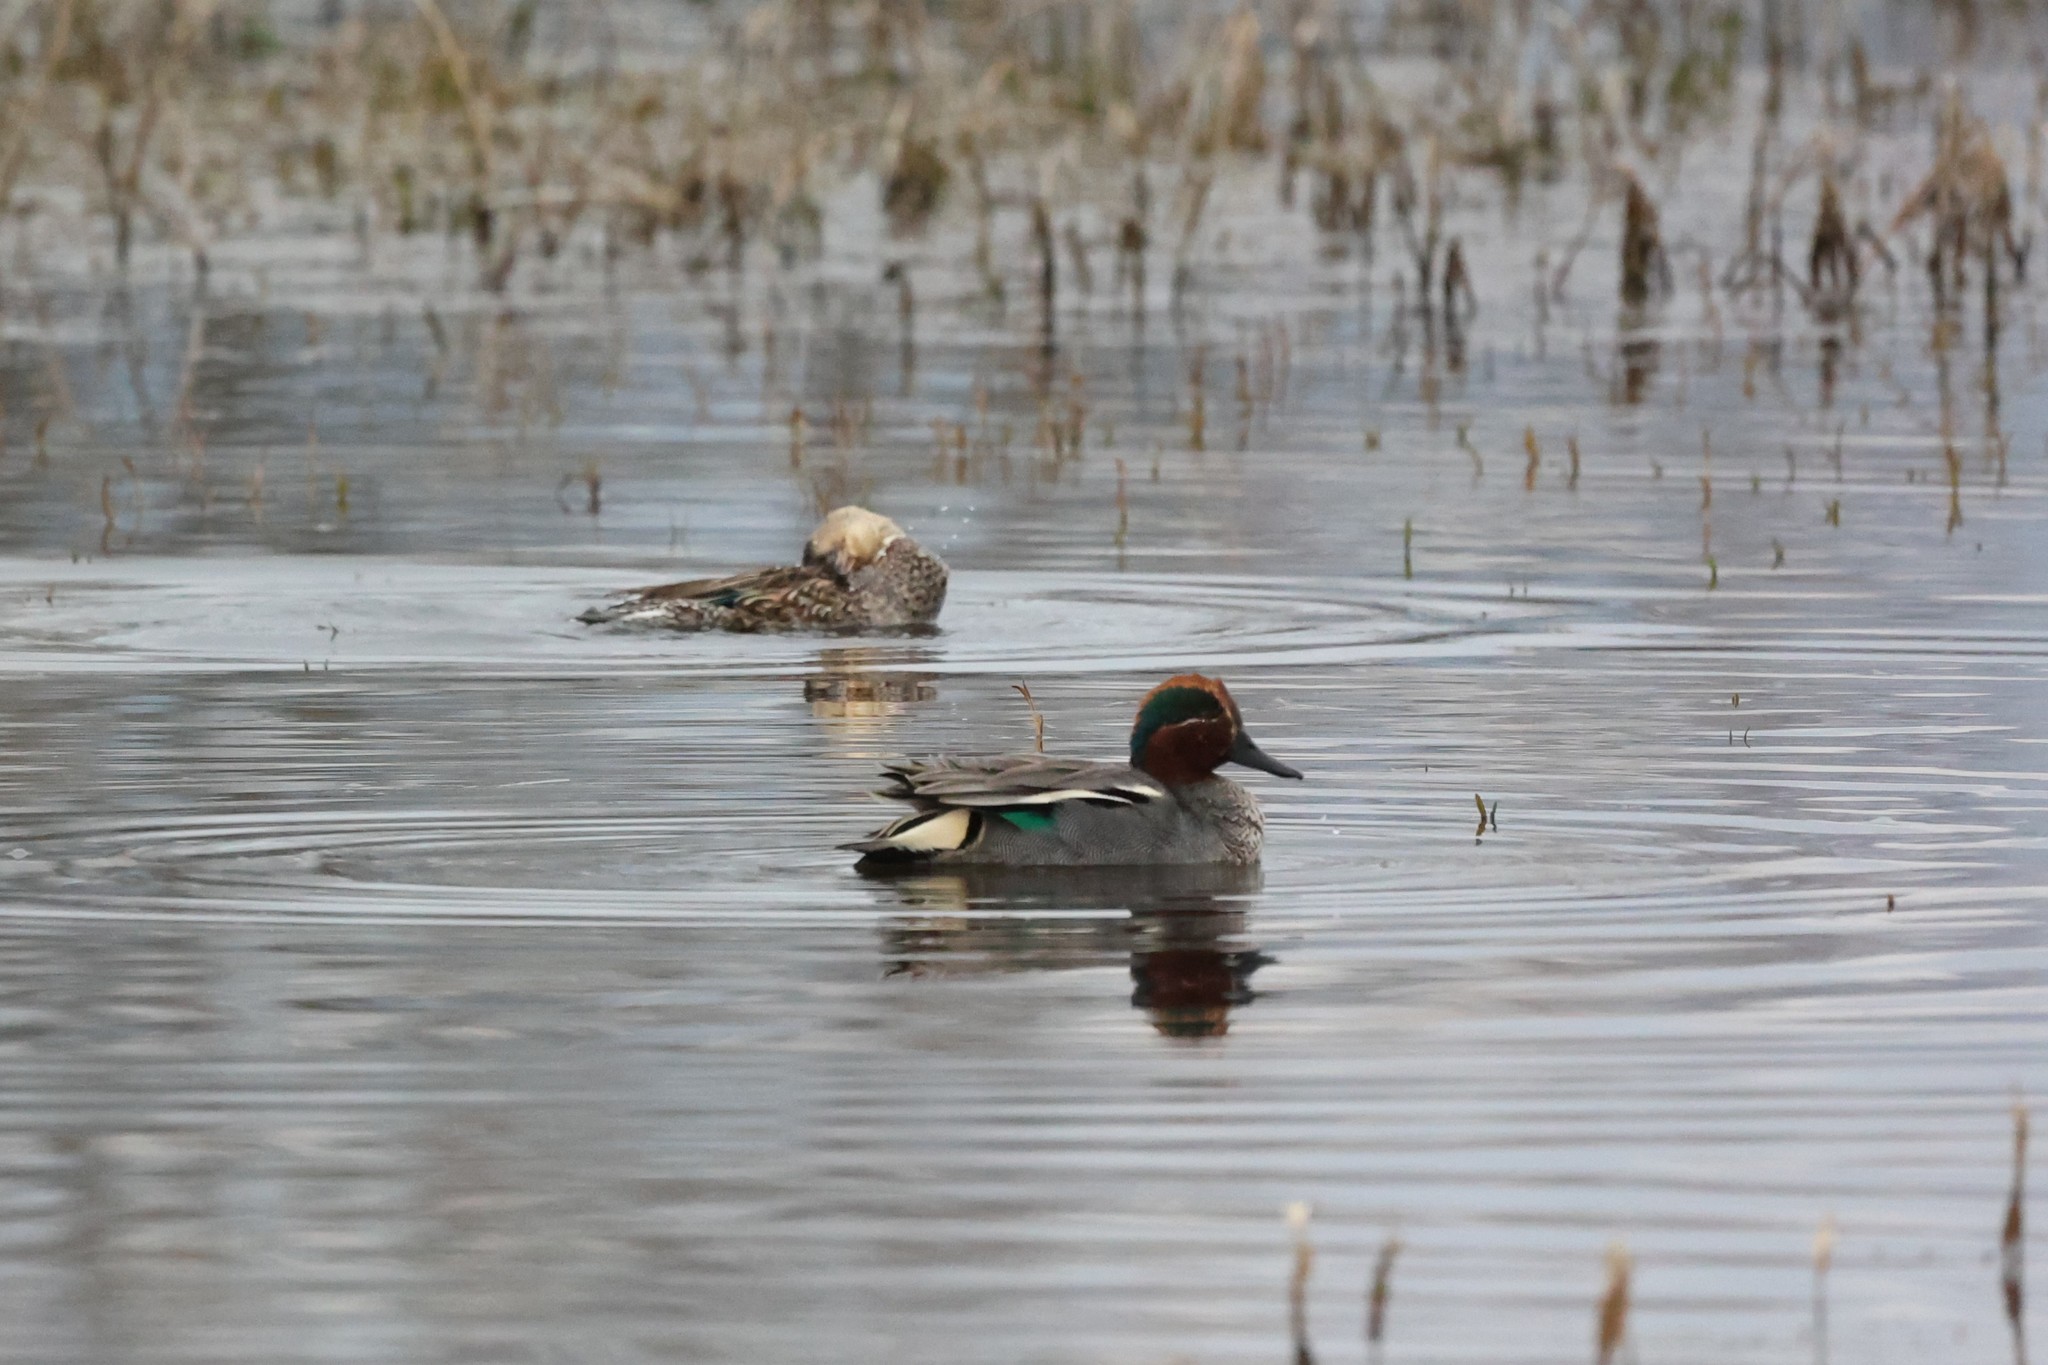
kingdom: Animalia
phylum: Chordata
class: Aves
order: Anseriformes
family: Anatidae
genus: Anas
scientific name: Anas crecca
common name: Eurasian teal
